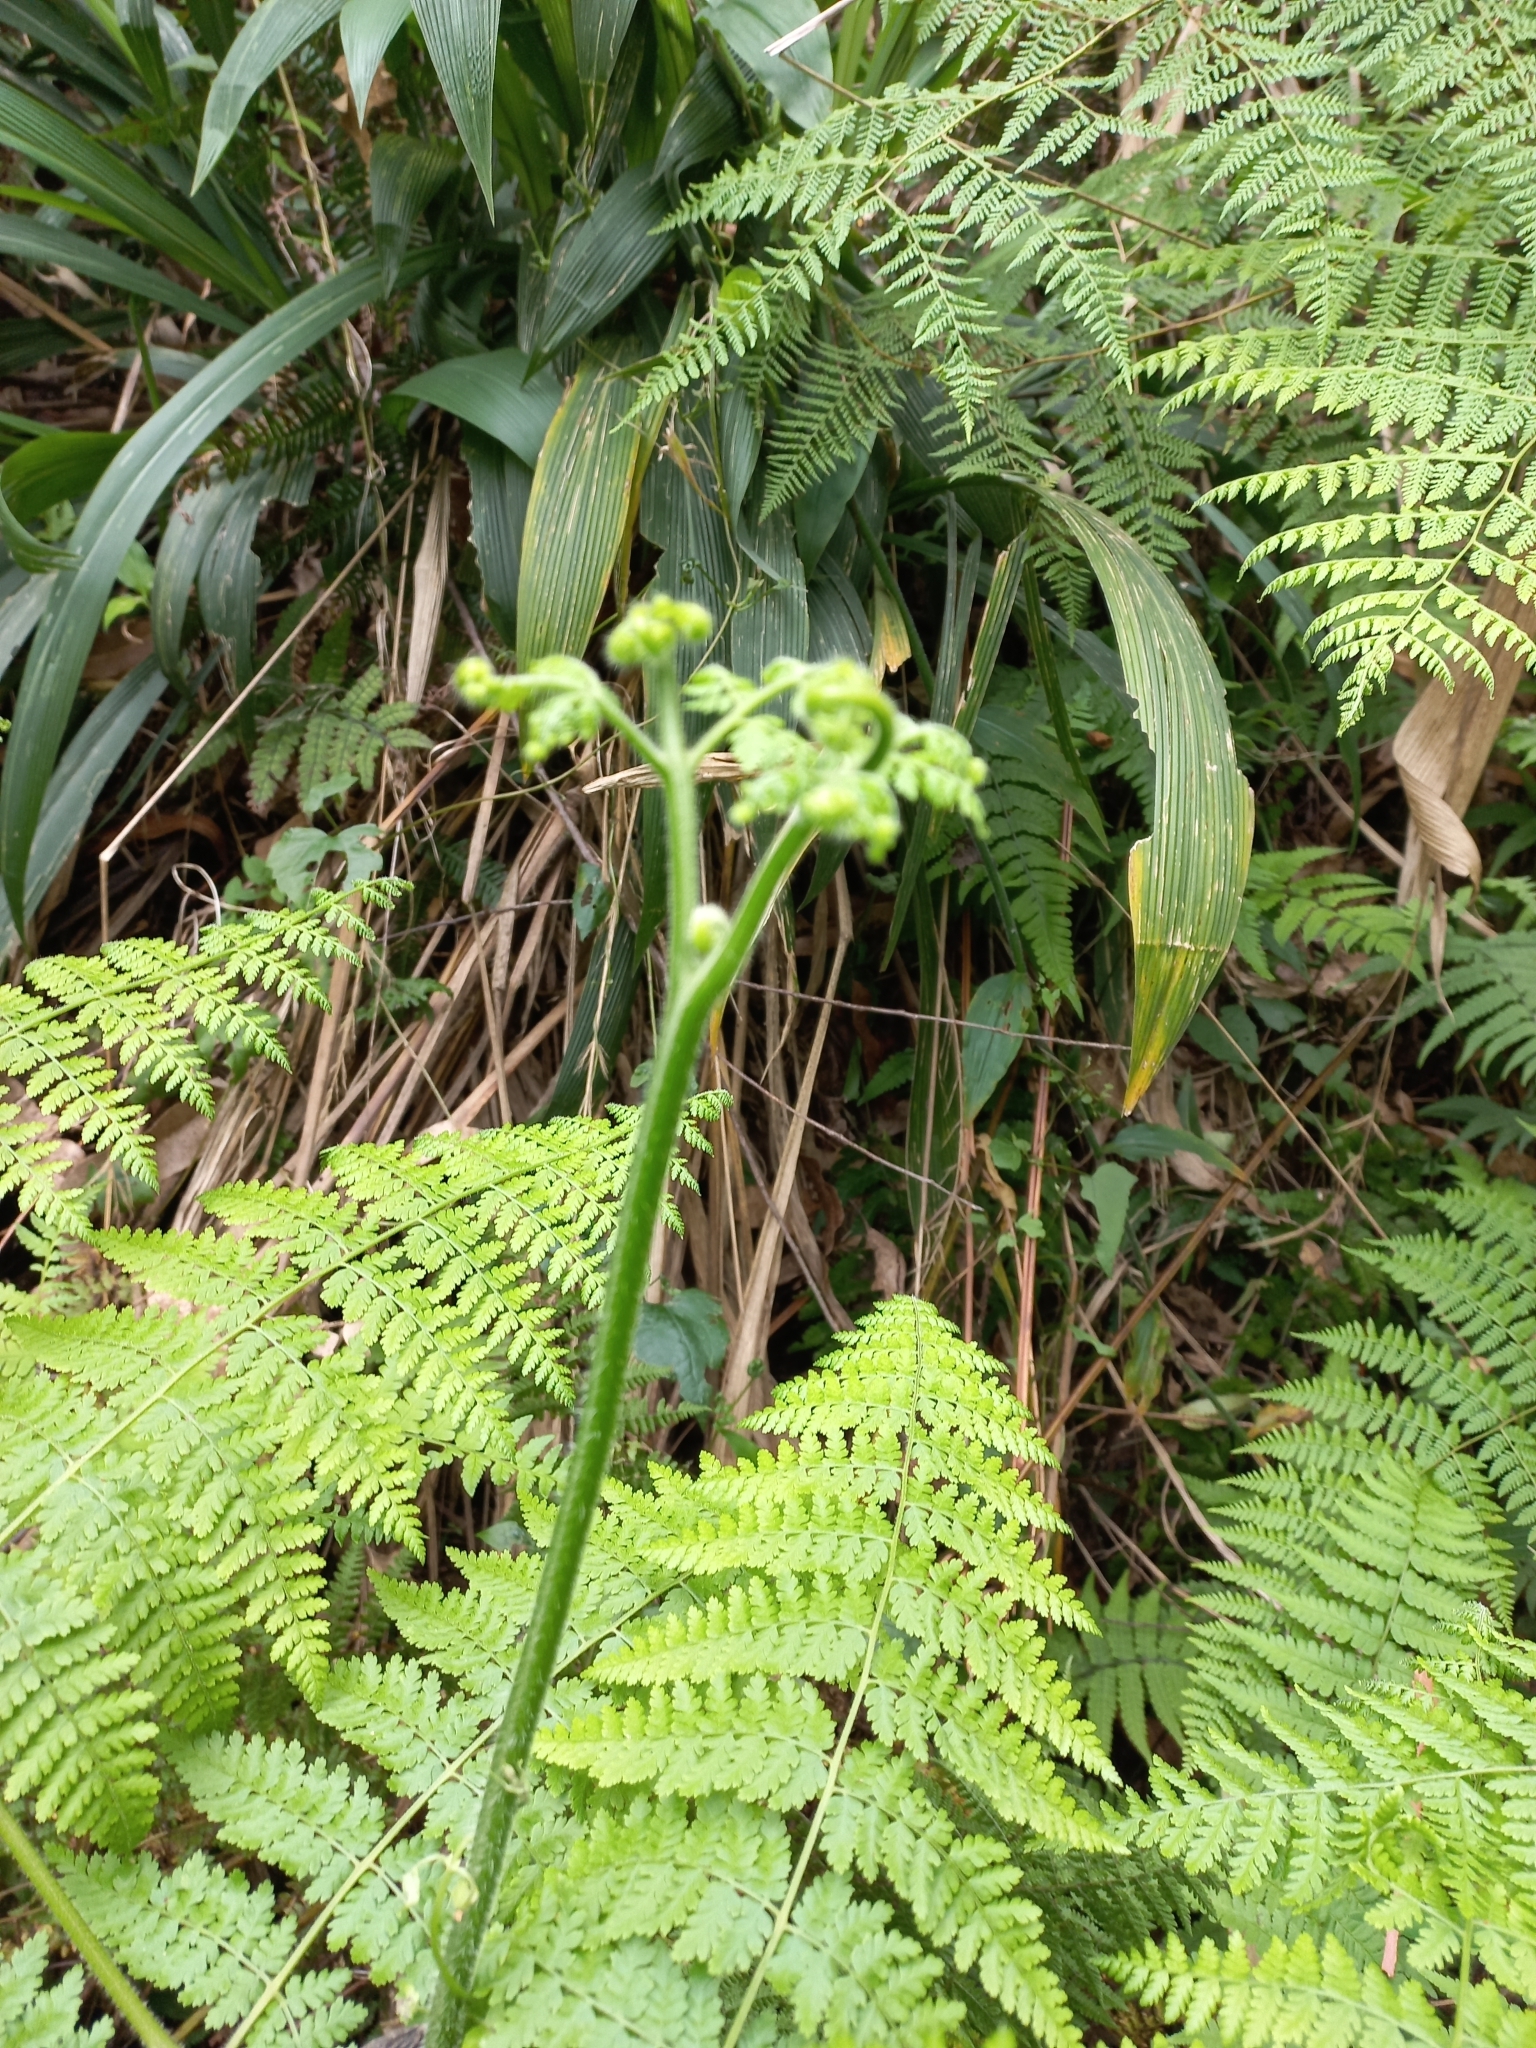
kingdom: Plantae
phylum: Tracheophyta
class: Polypodiopsida
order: Polypodiales
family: Dennstaedtiaceae
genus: Hypolepis
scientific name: Hypolepis sparsisora
